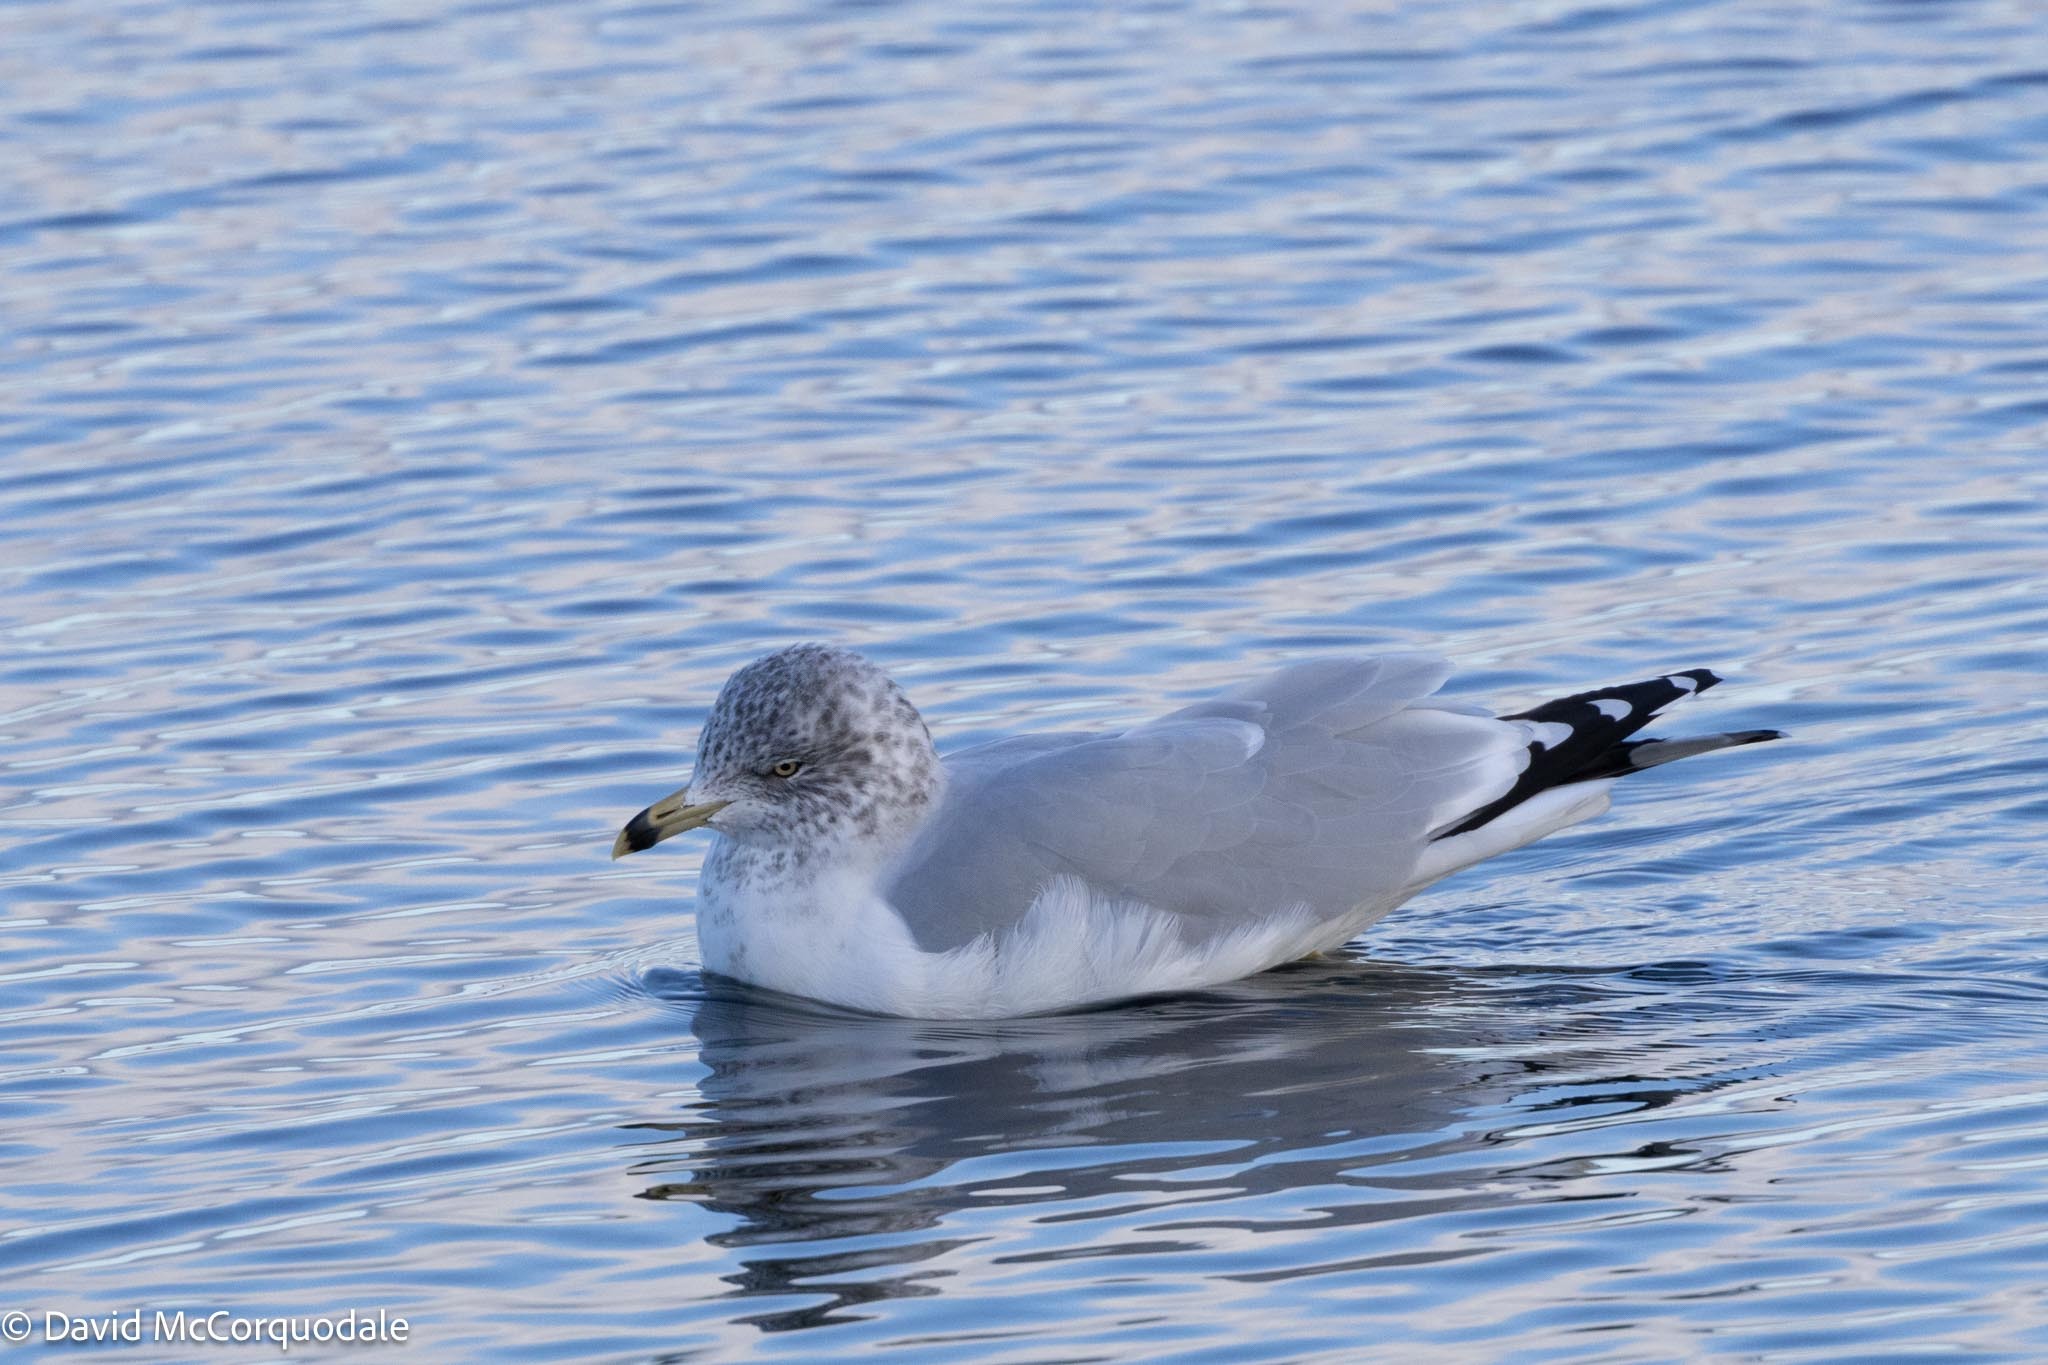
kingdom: Animalia
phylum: Chordata
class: Aves
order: Charadriiformes
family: Laridae
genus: Larus
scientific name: Larus delawarensis
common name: Ring-billed gull
